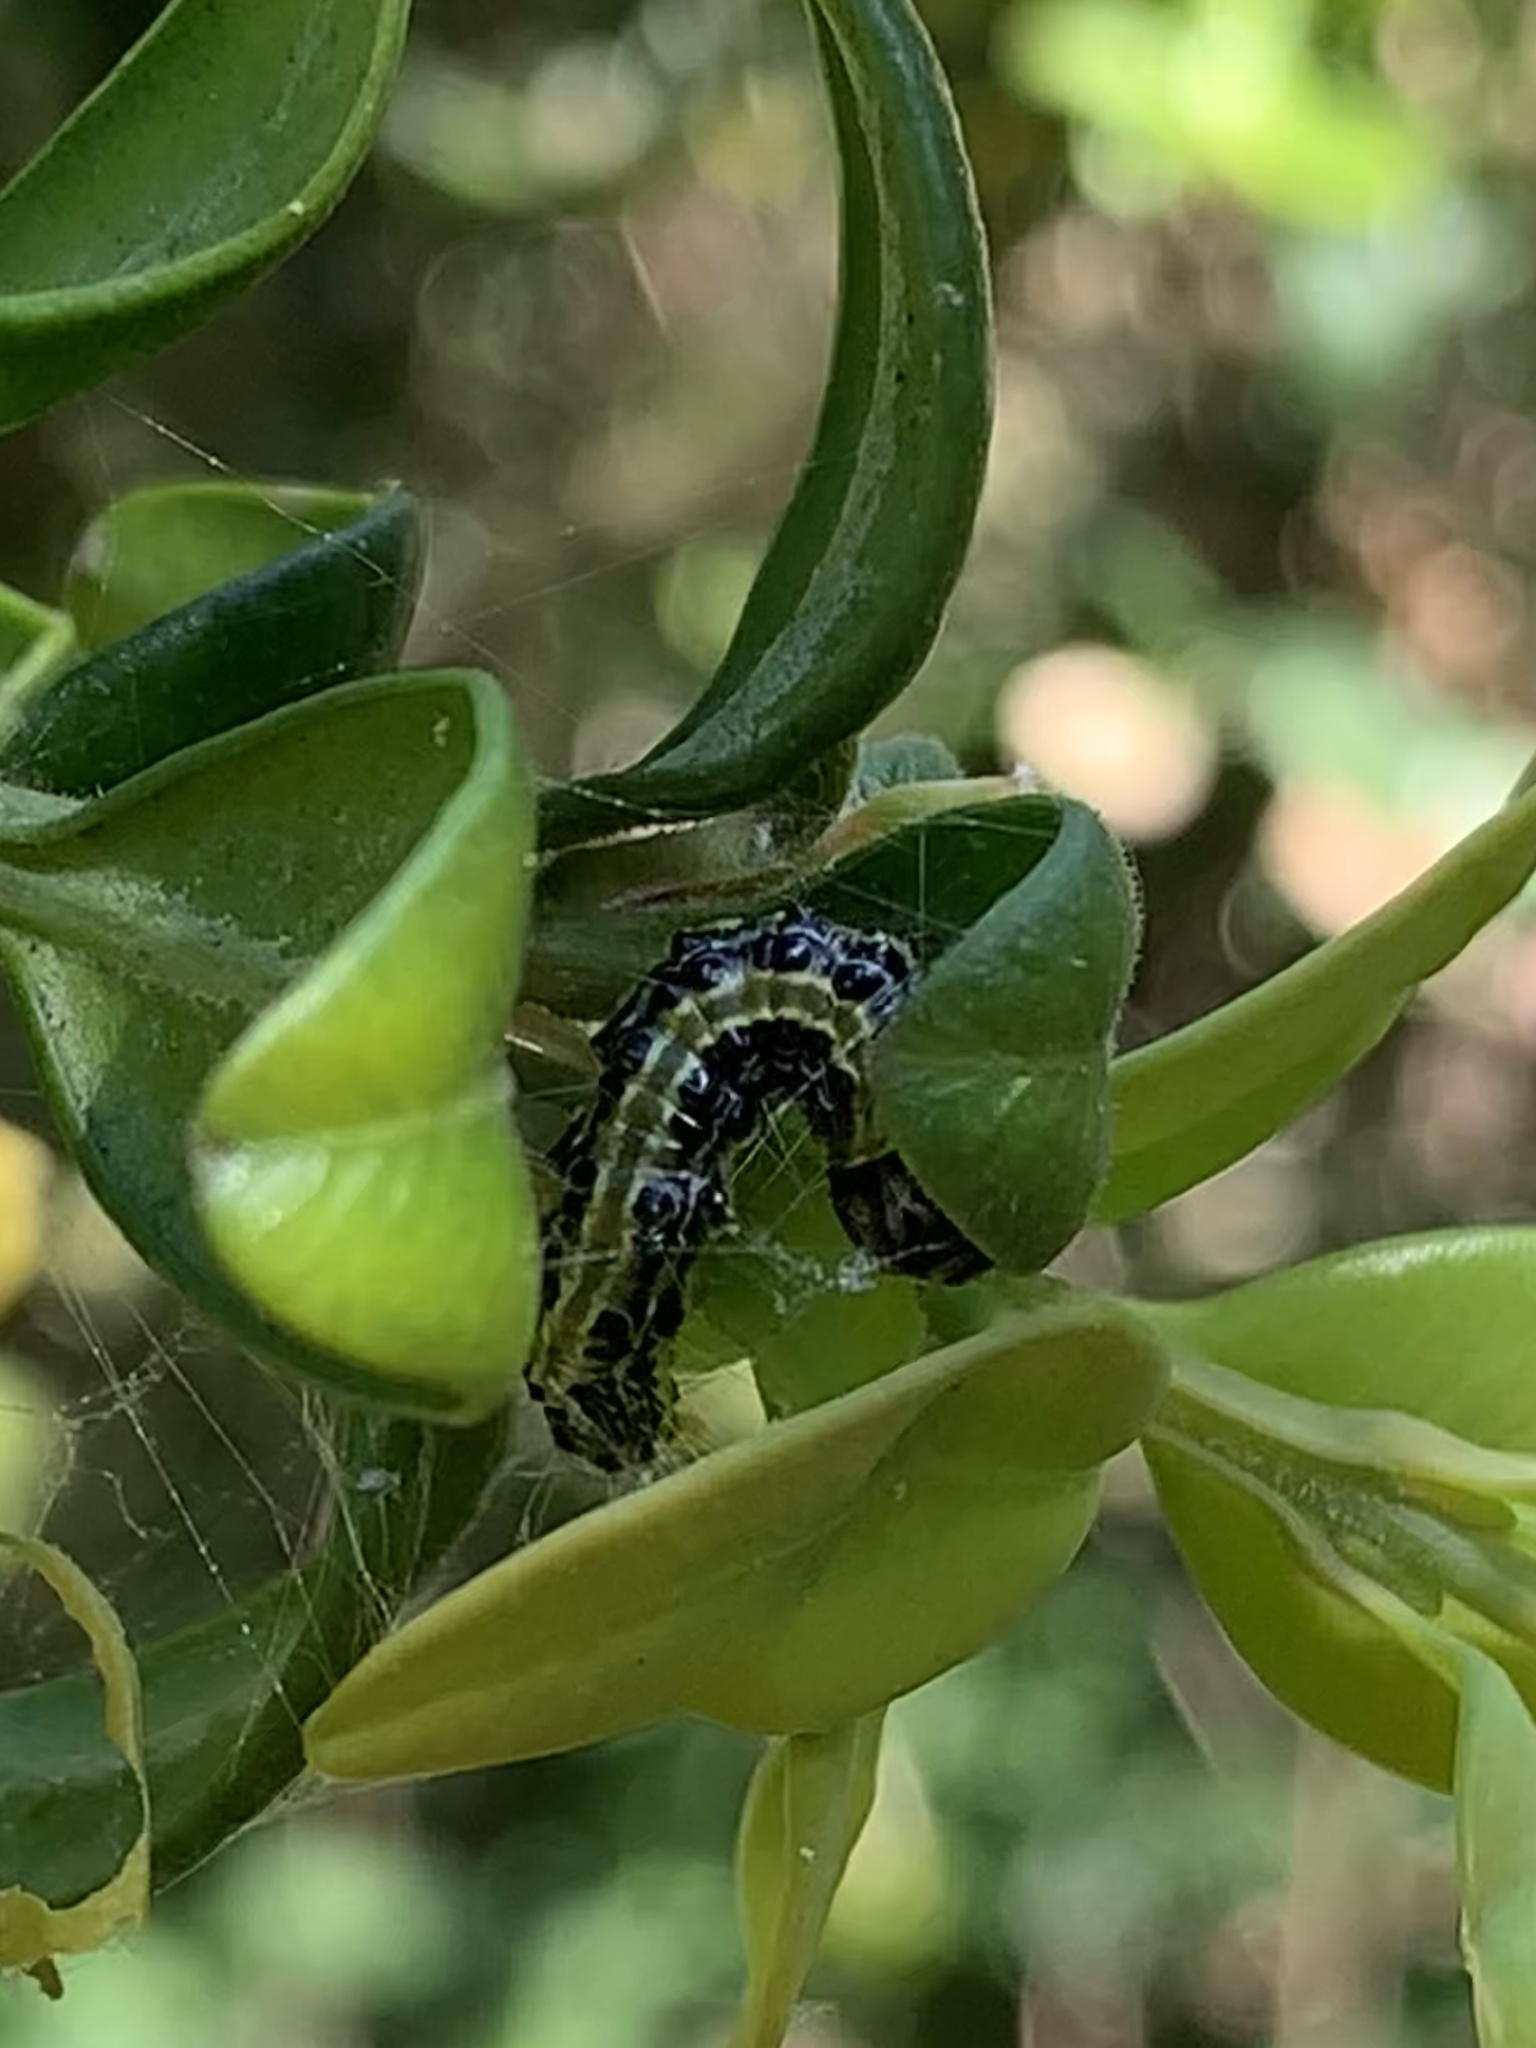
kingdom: Animalia
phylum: Arthropoda
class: Insecta
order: Lepidoptera
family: Crambidae
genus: Cydalima
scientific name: Cydalima perspectalis
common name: Box tree moth
